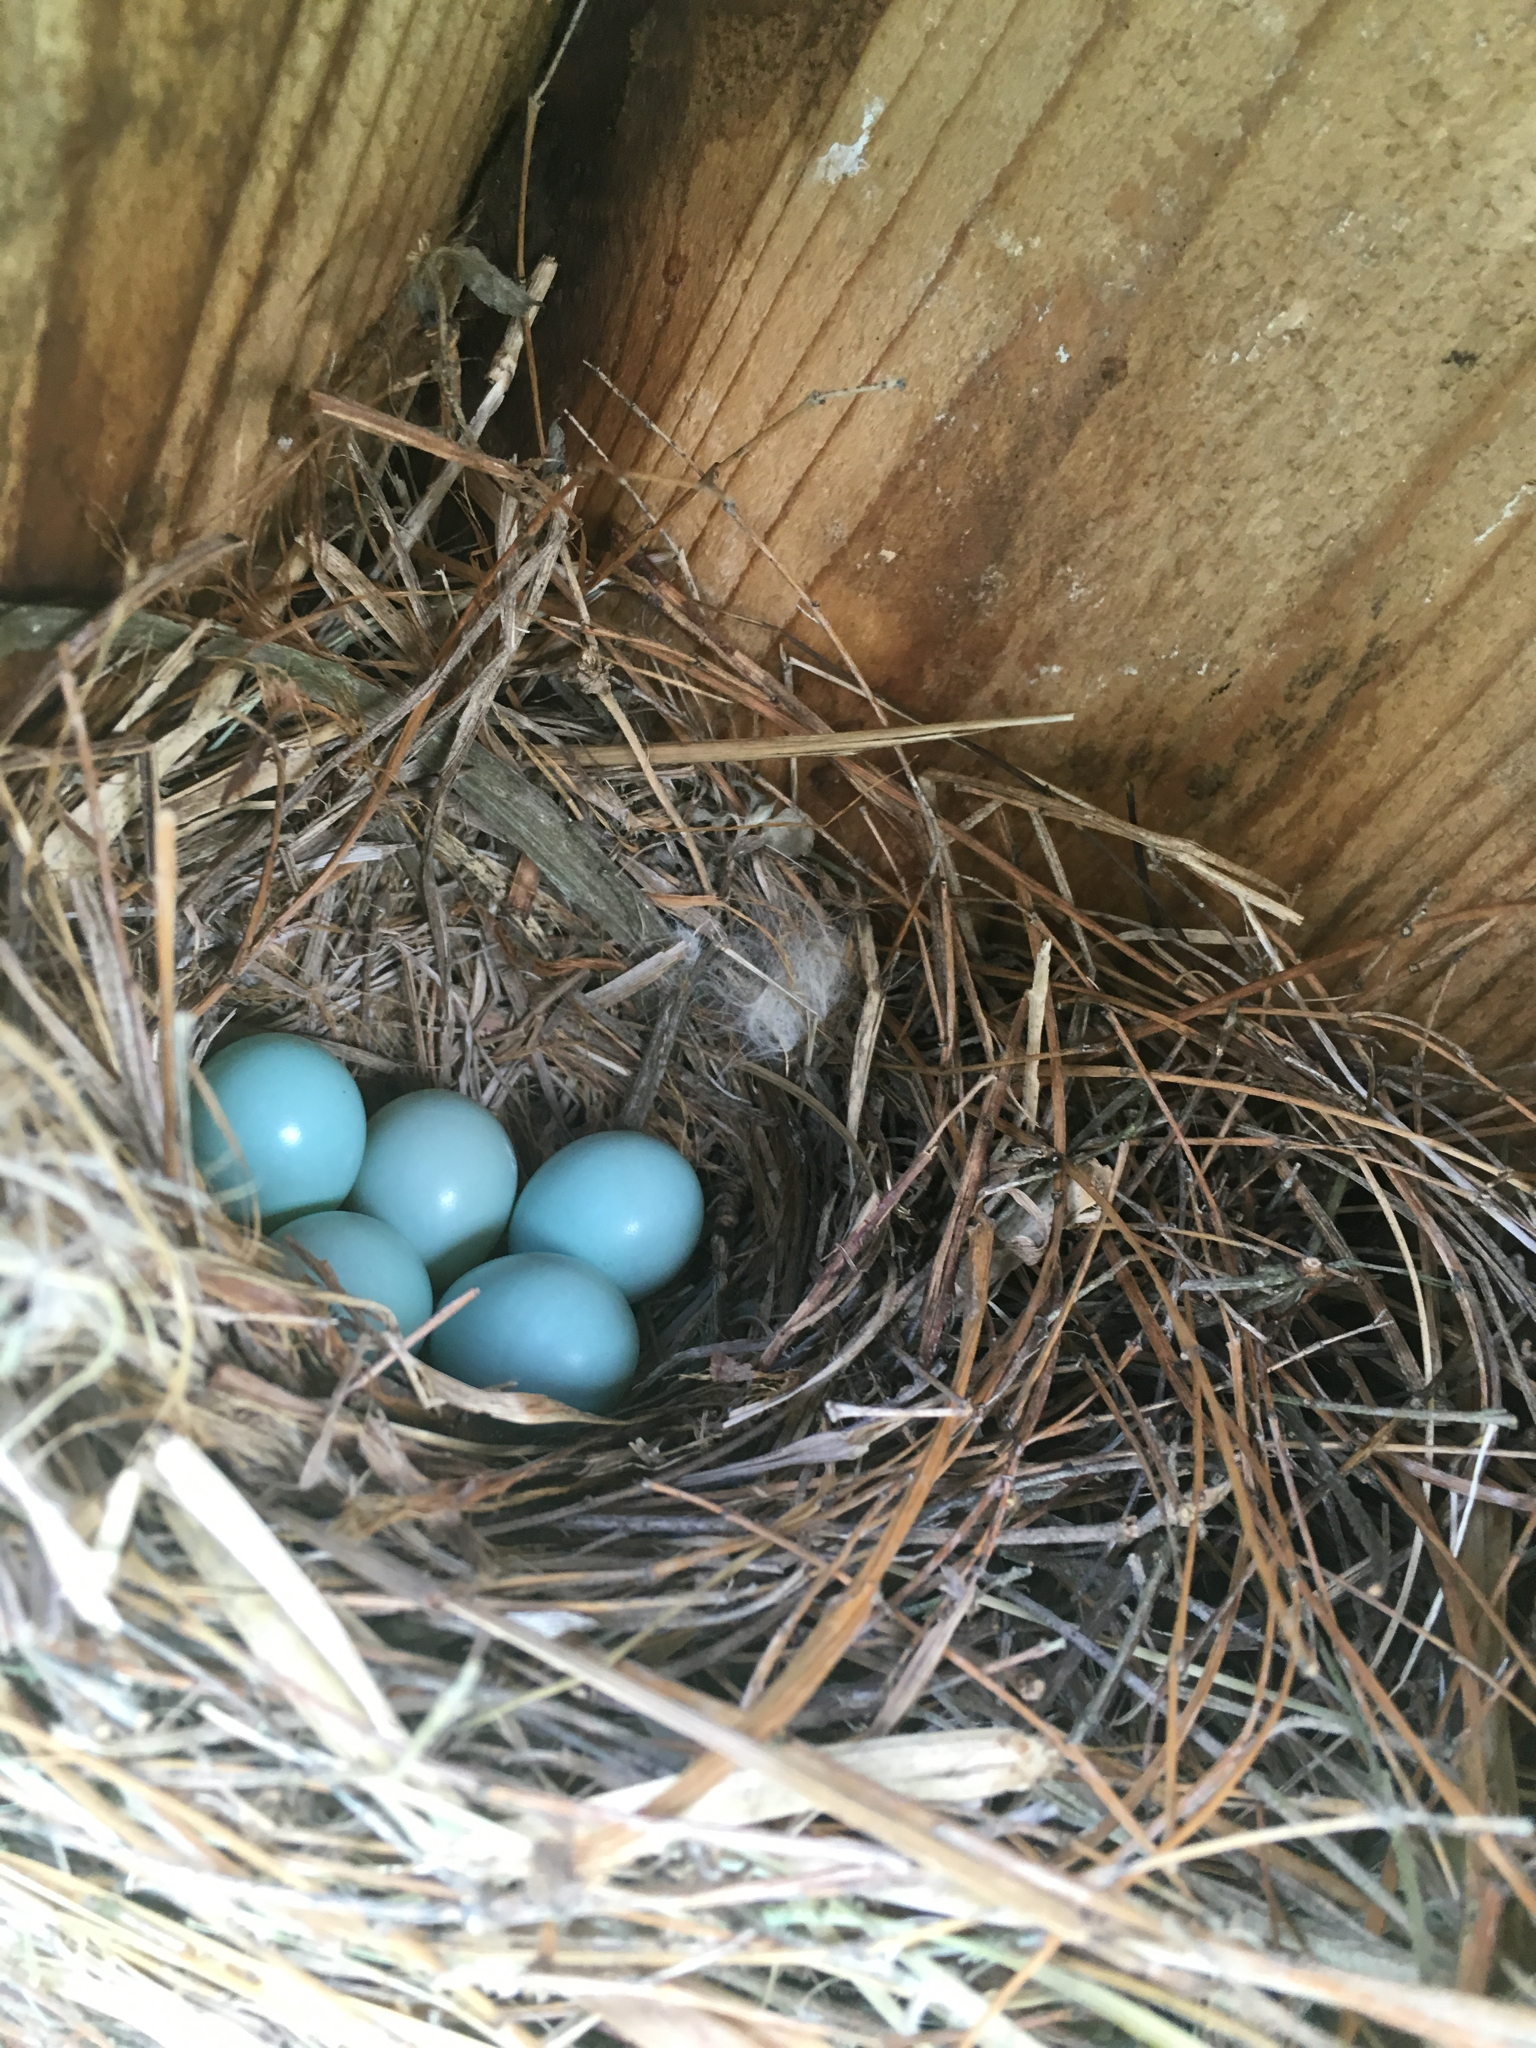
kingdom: Animalia
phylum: Chordata
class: Aves
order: Passeriformes
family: Turdidae
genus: Sialia
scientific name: Sialia sialis
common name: Eastern bluebird
